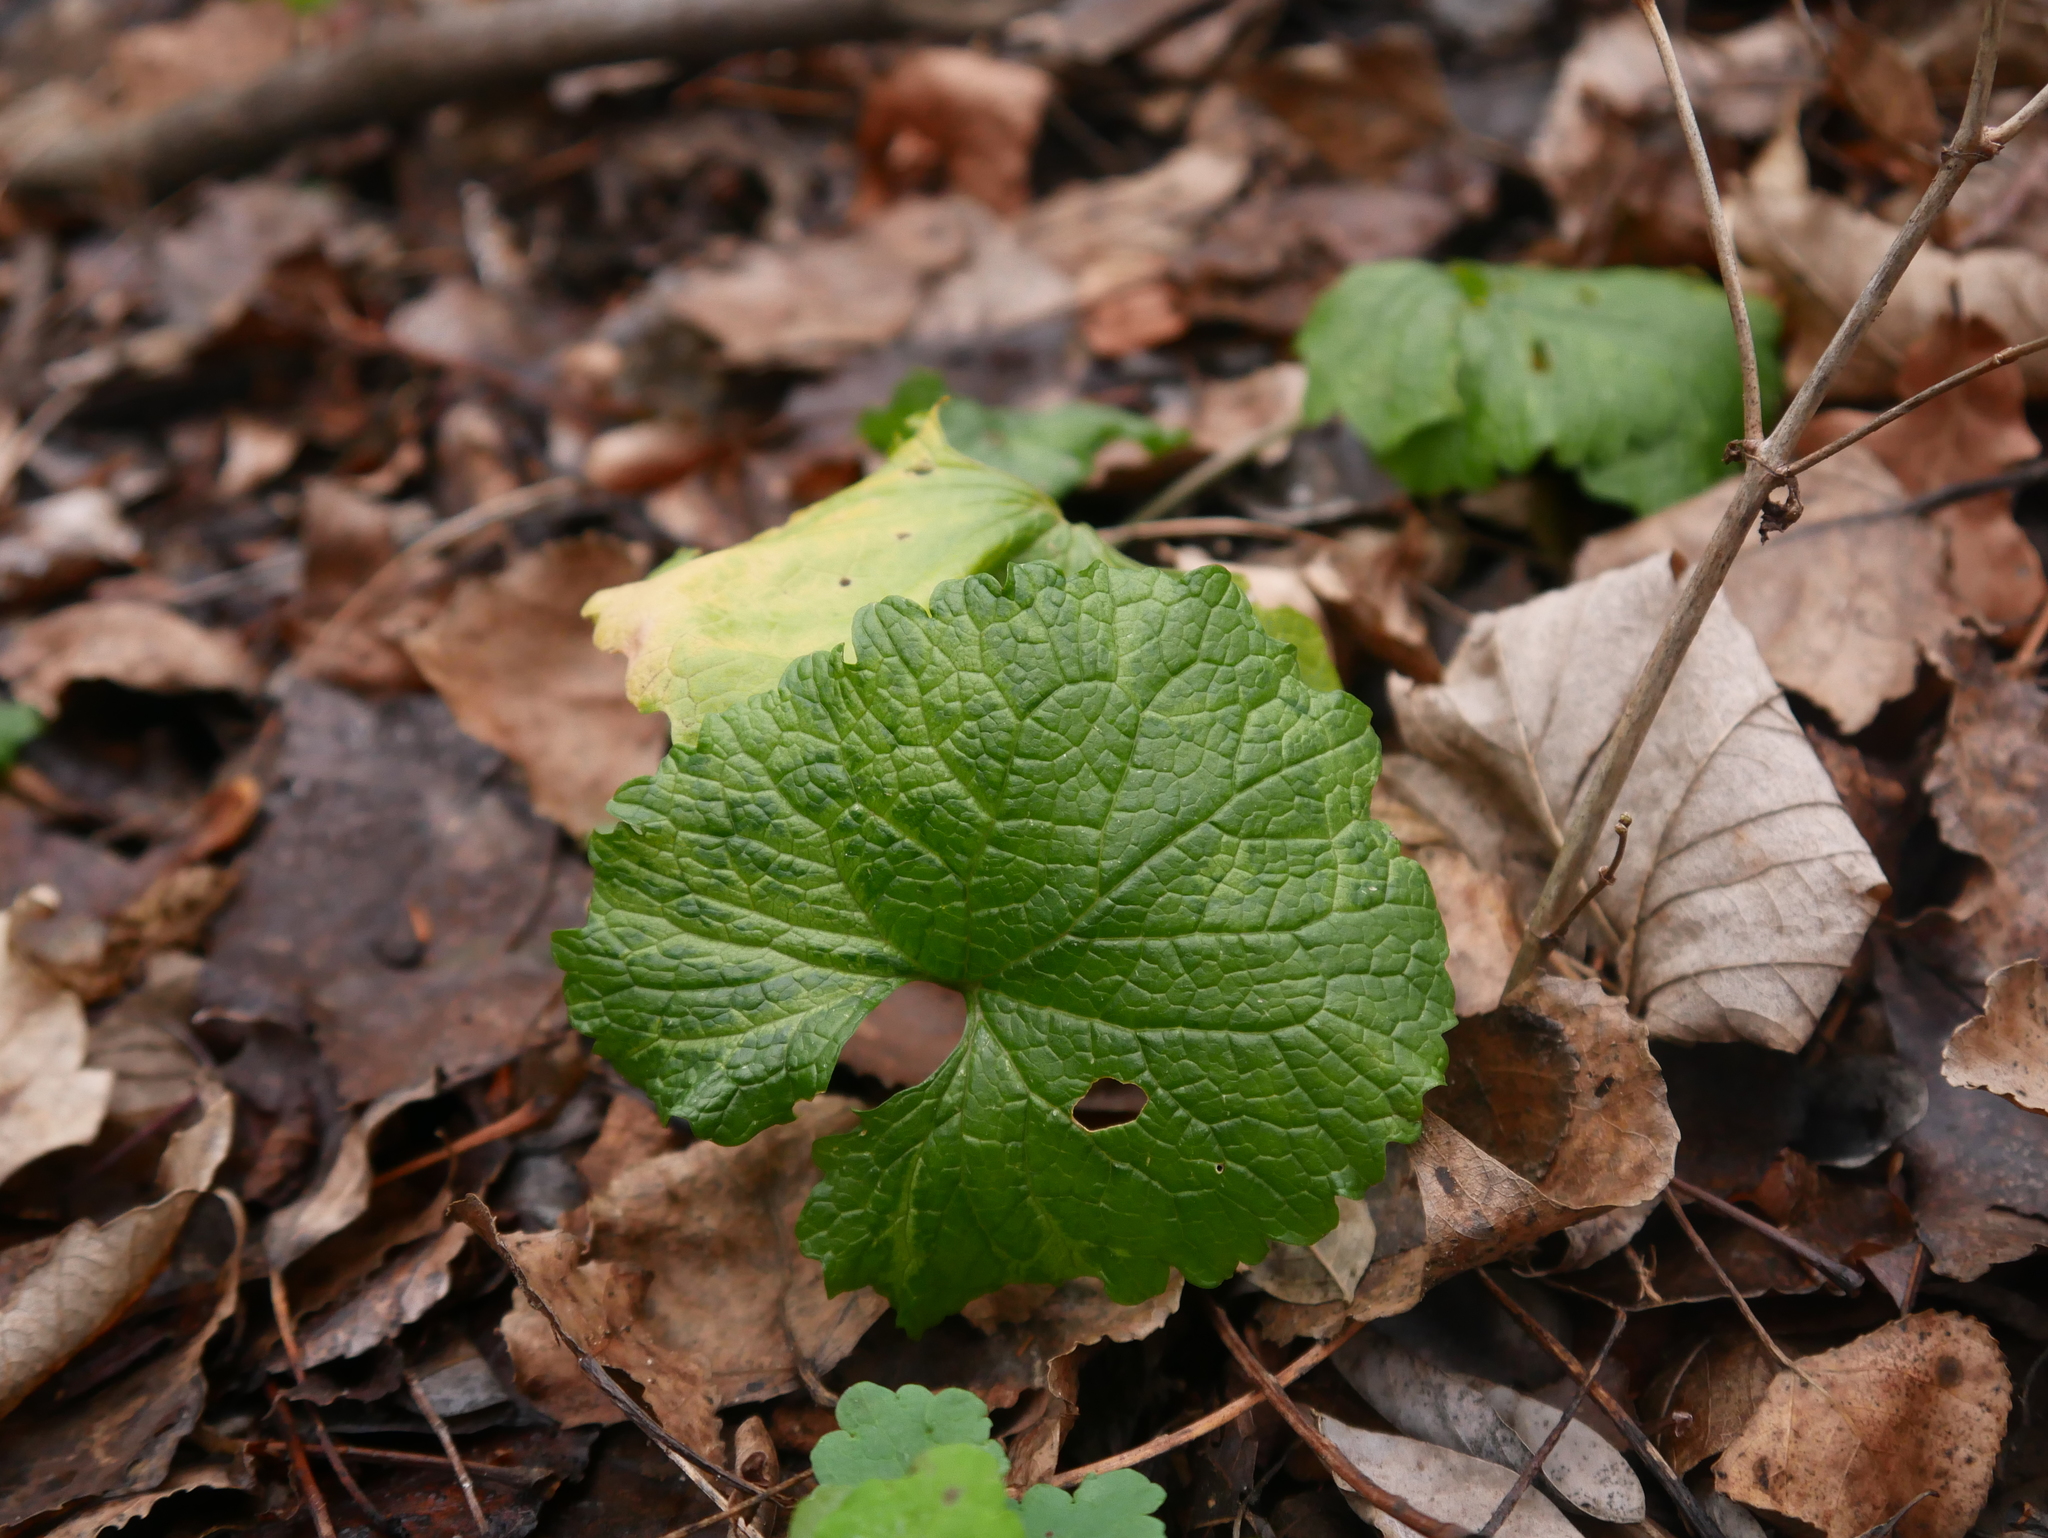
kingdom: Plantae
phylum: Tracheophyta
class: Magnoliopsida
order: Brassicales
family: Brassicaceae
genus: Alliaria
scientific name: Alliaria petiolata
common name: Garlic mustard
